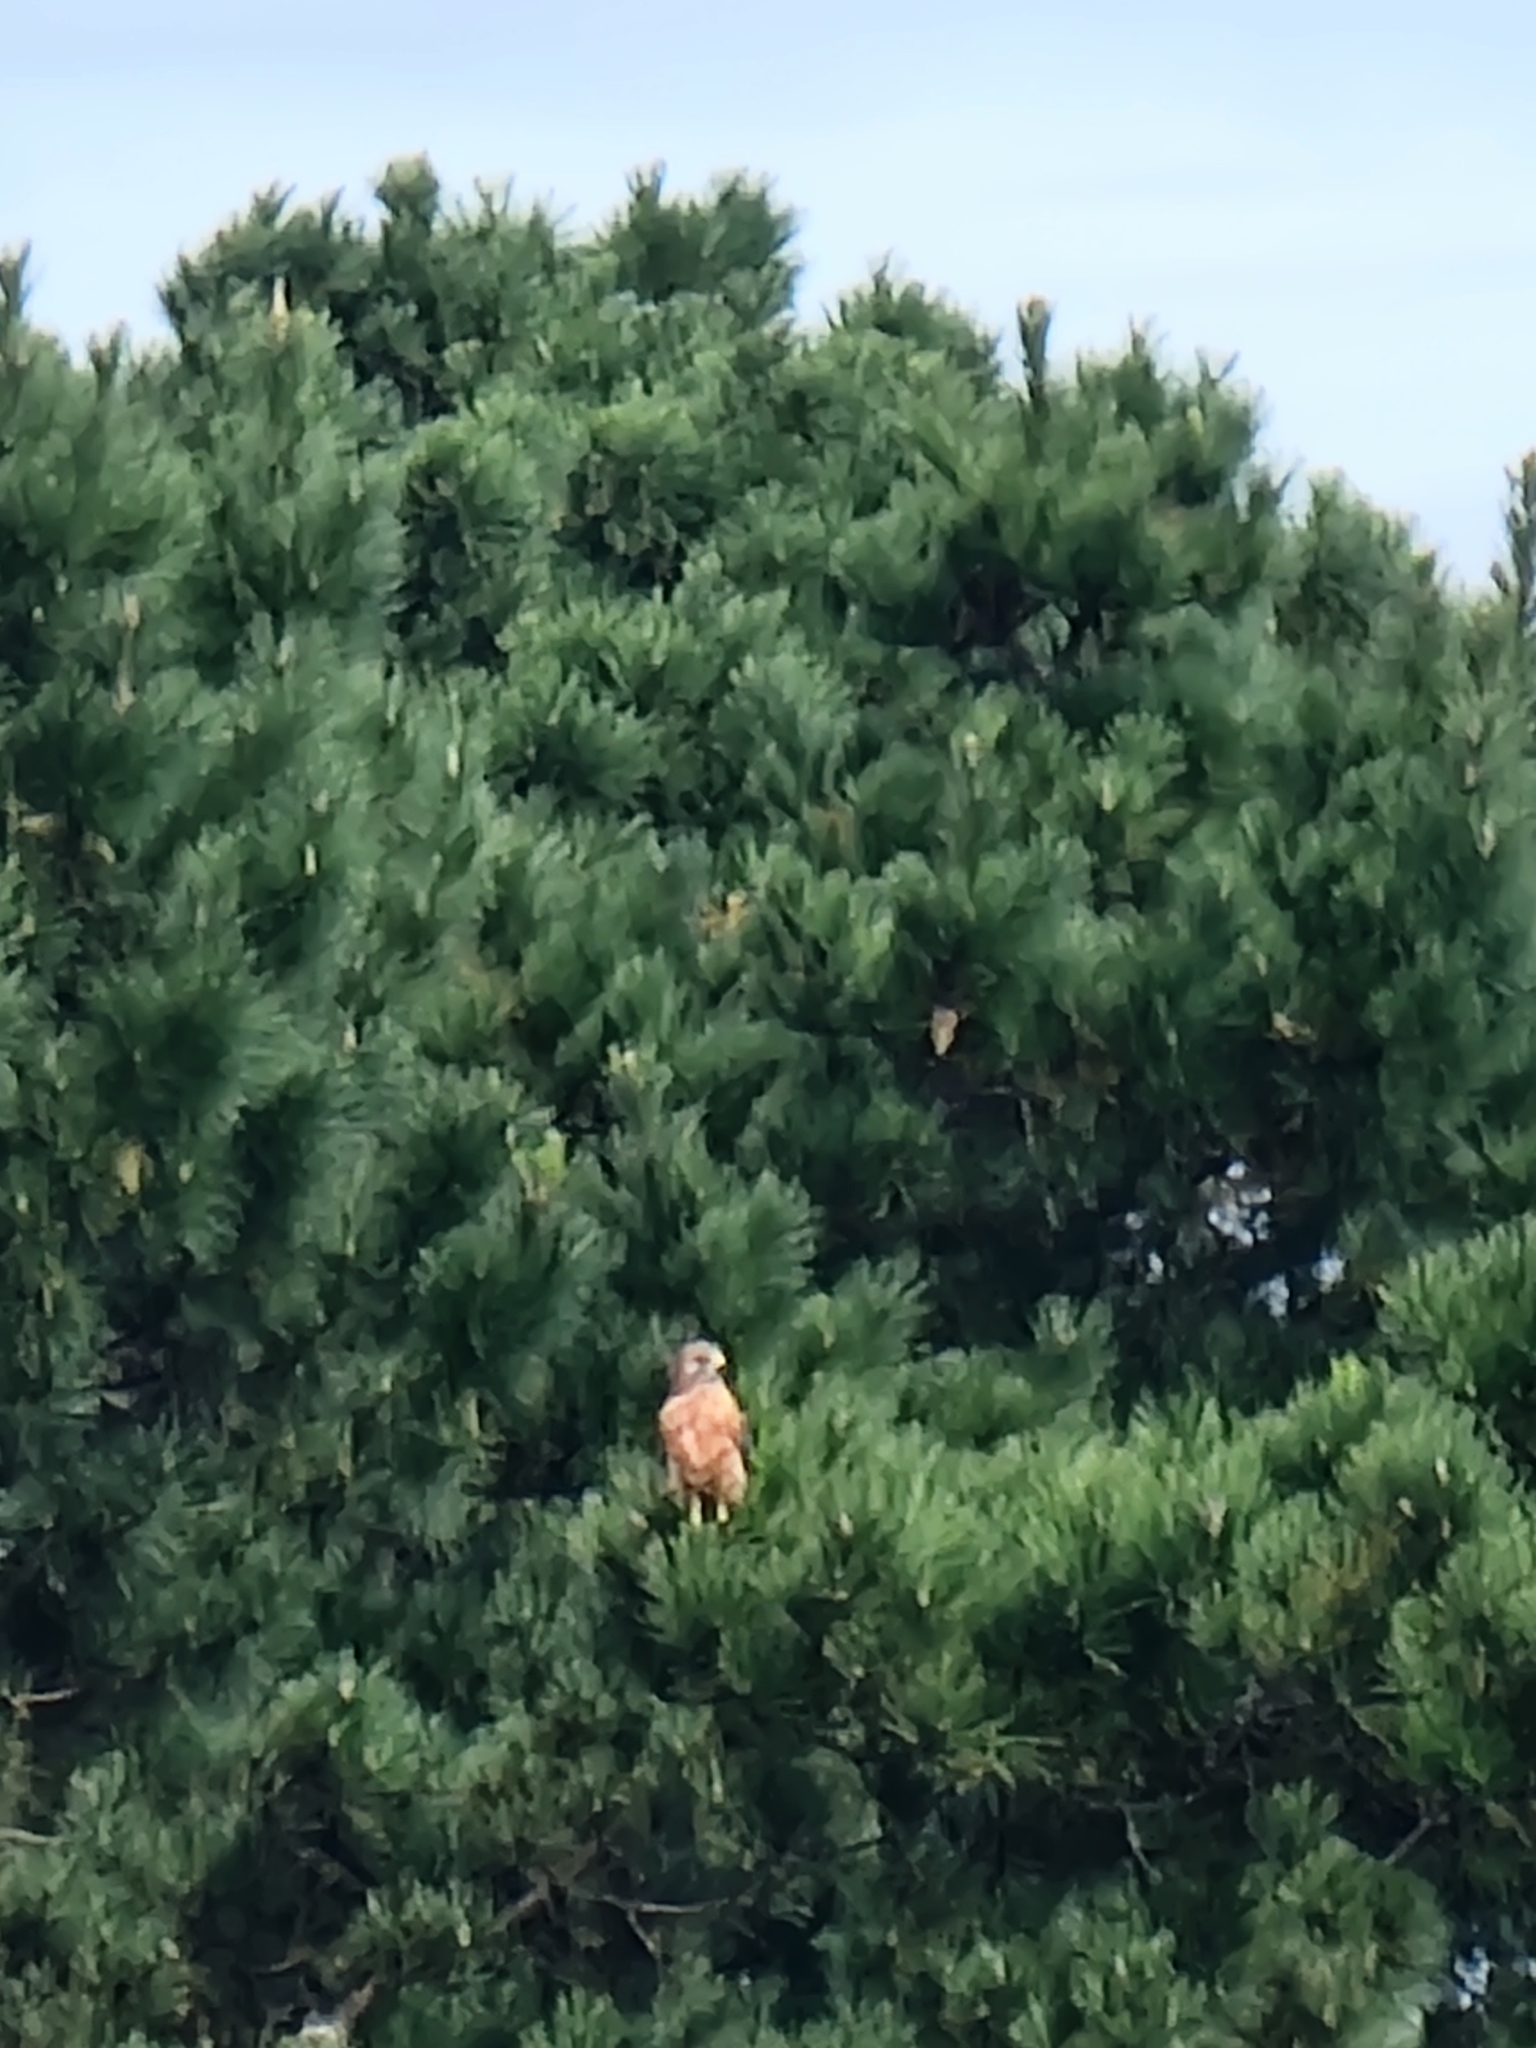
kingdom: Animalia
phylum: Chordata
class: Aves
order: Accipitriformes
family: Accipitridae
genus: Buteo
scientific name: Buteo lineatus
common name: Red-shouldered hawk
